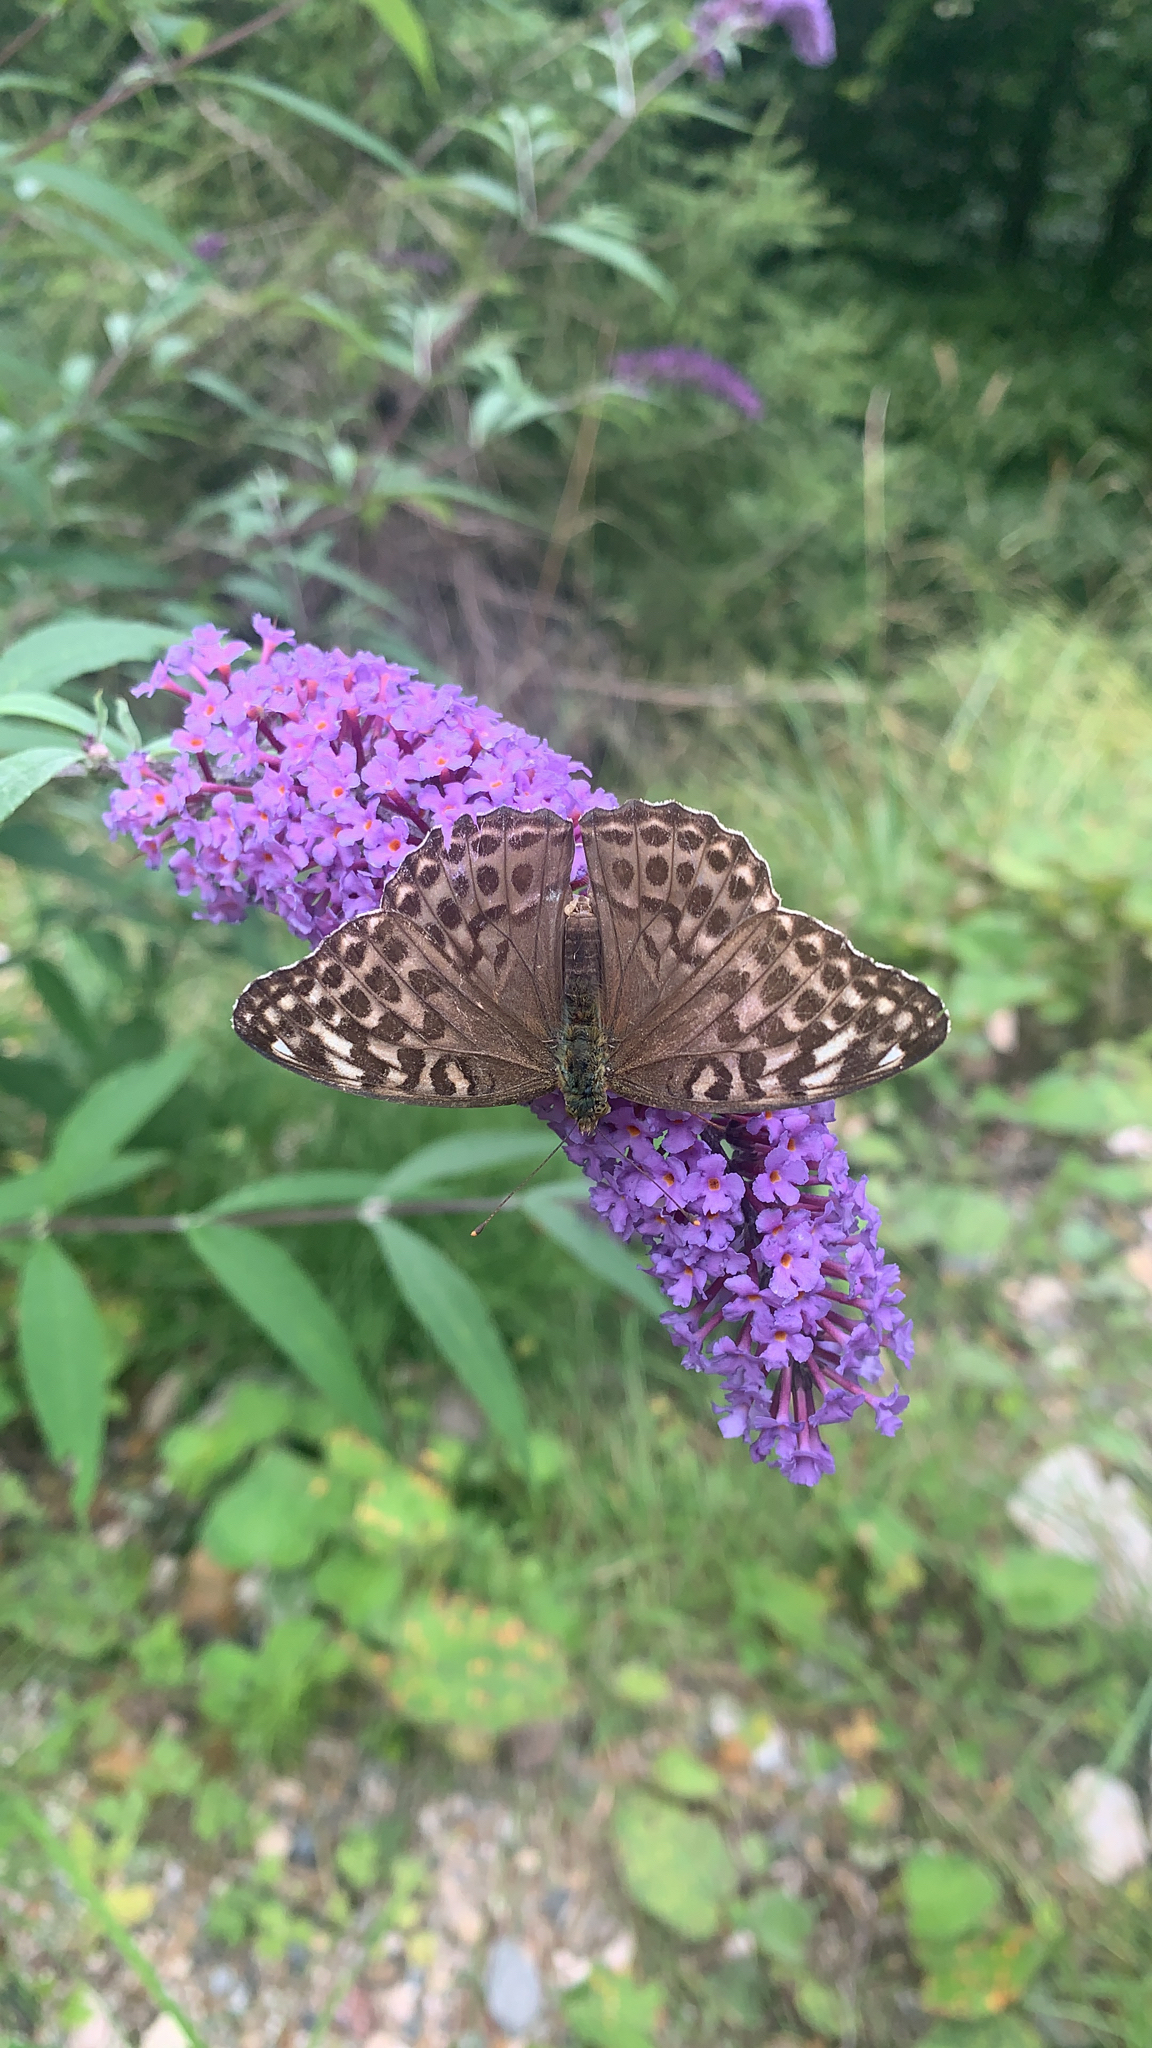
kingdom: Animalia
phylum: Arthropoda
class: Insecta
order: Lepidoptera
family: Nymphalidae
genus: Argynnis
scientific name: Argynnis paphia
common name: Silver-washed fritillary
